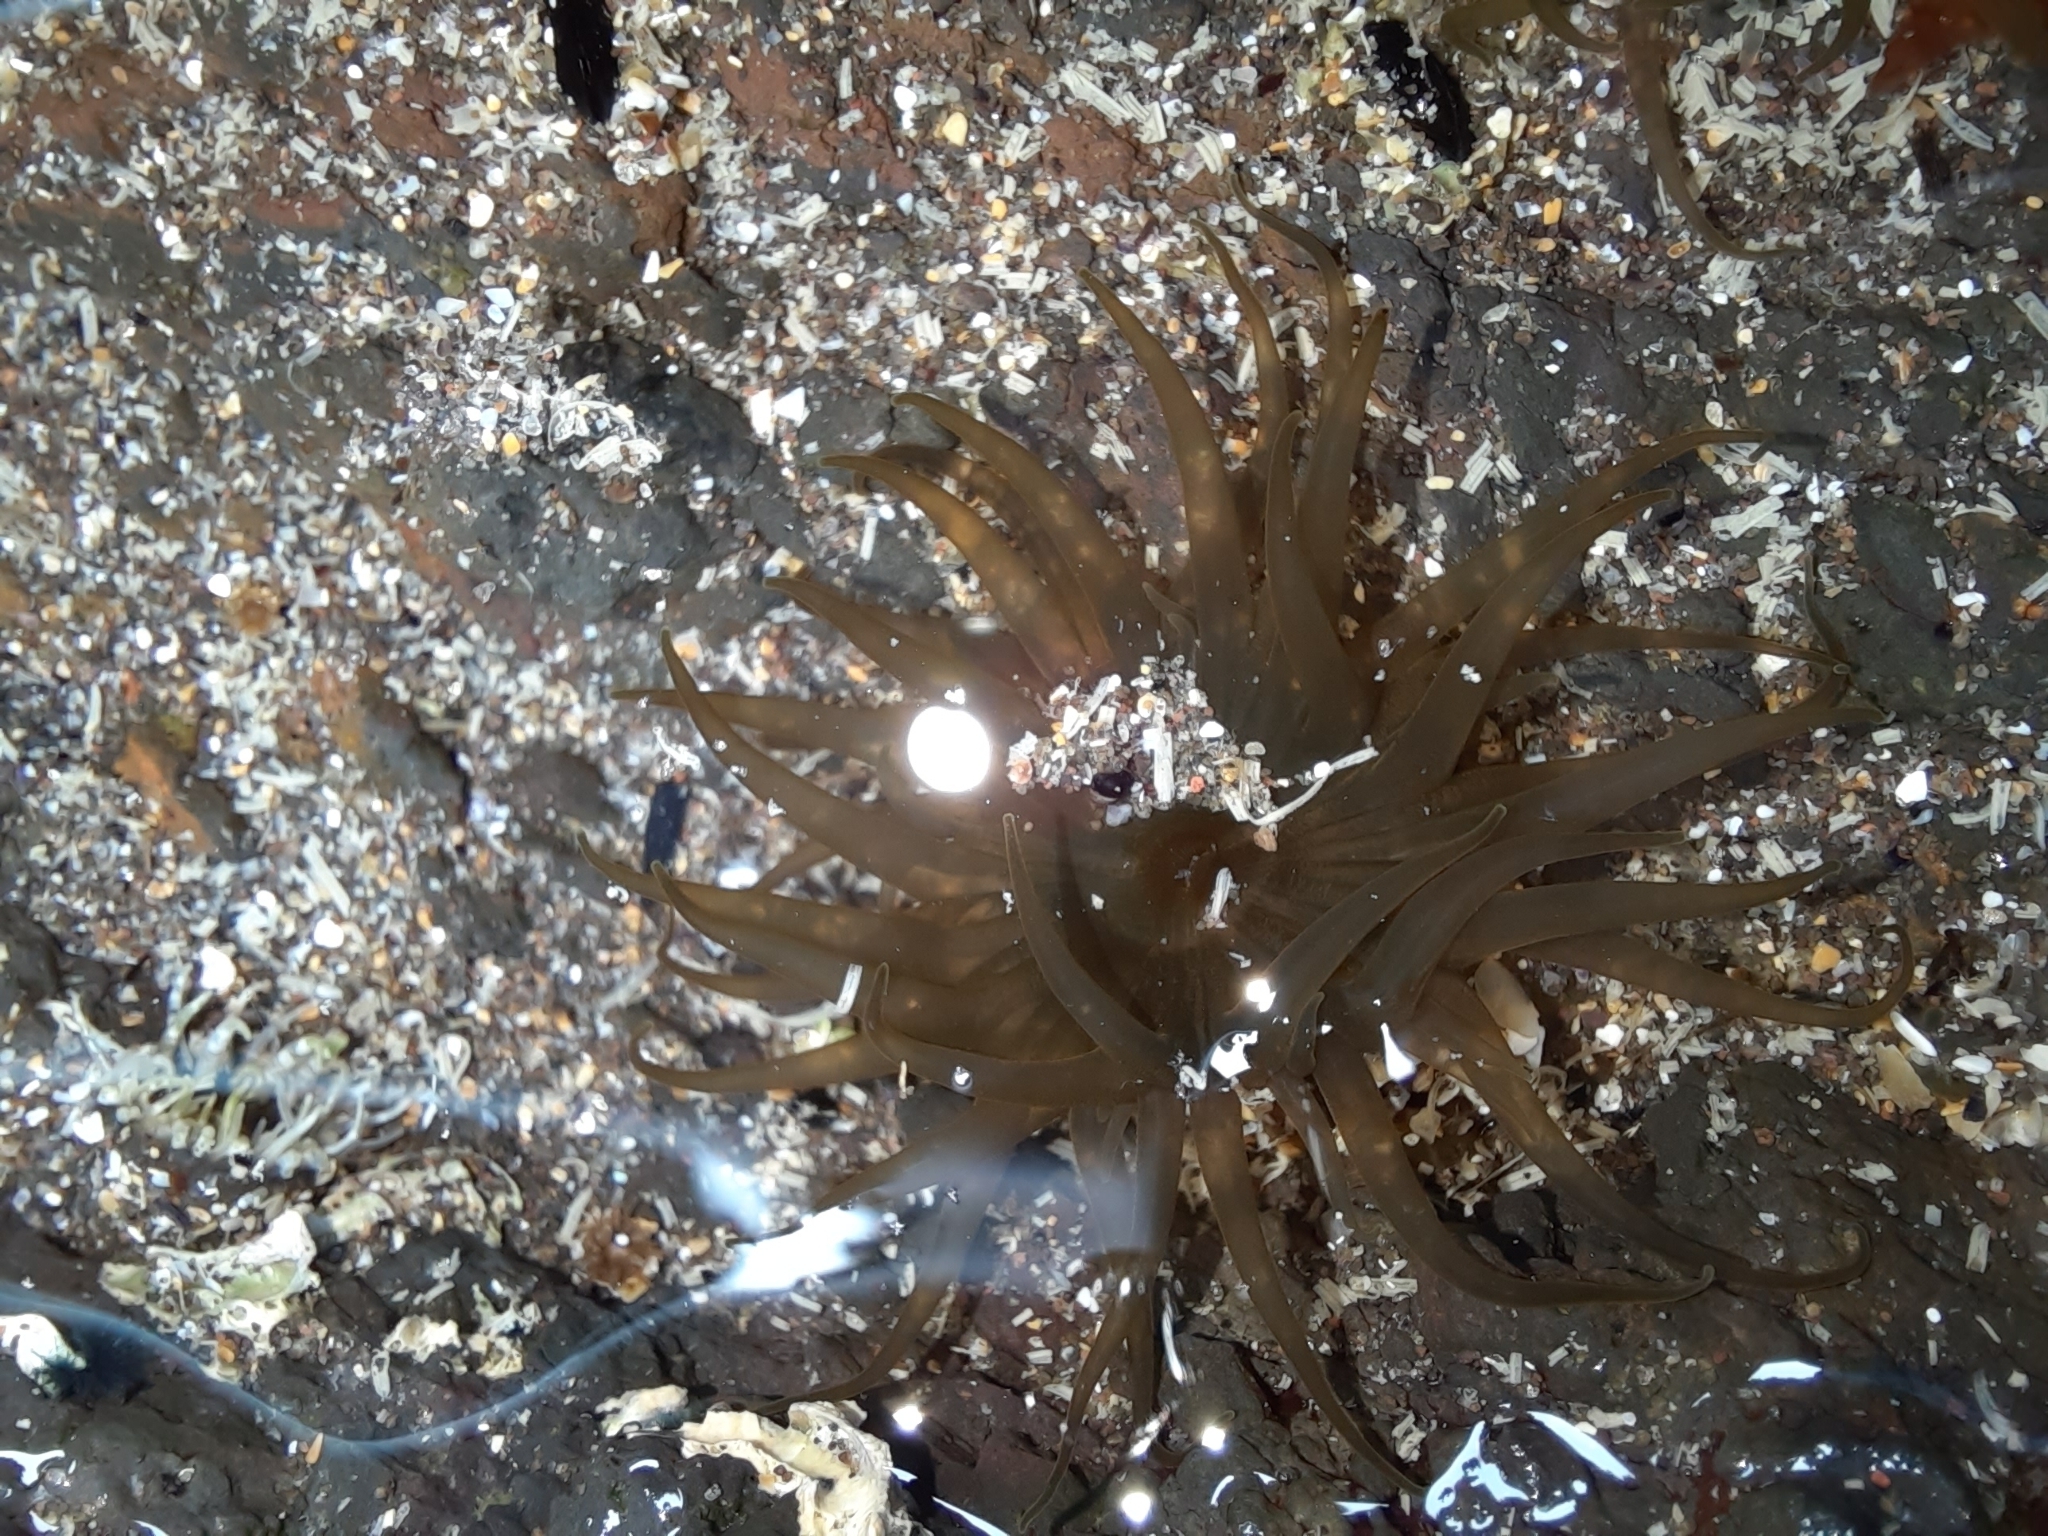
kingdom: Animalia
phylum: Cnidaria
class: Anthozoa
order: Actiniaria
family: Actiniidae
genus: Isactinia
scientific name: Isactinia olivacea
